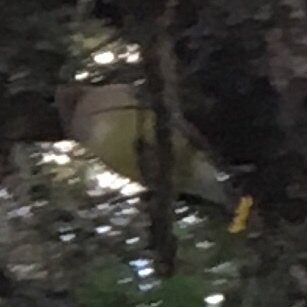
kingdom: Animalia
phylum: Chordata
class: Aves
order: Passeriformes
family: Bombycillidae
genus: Bombycilla
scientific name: Bombycilla cedrorum
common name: Cedar waxwing
